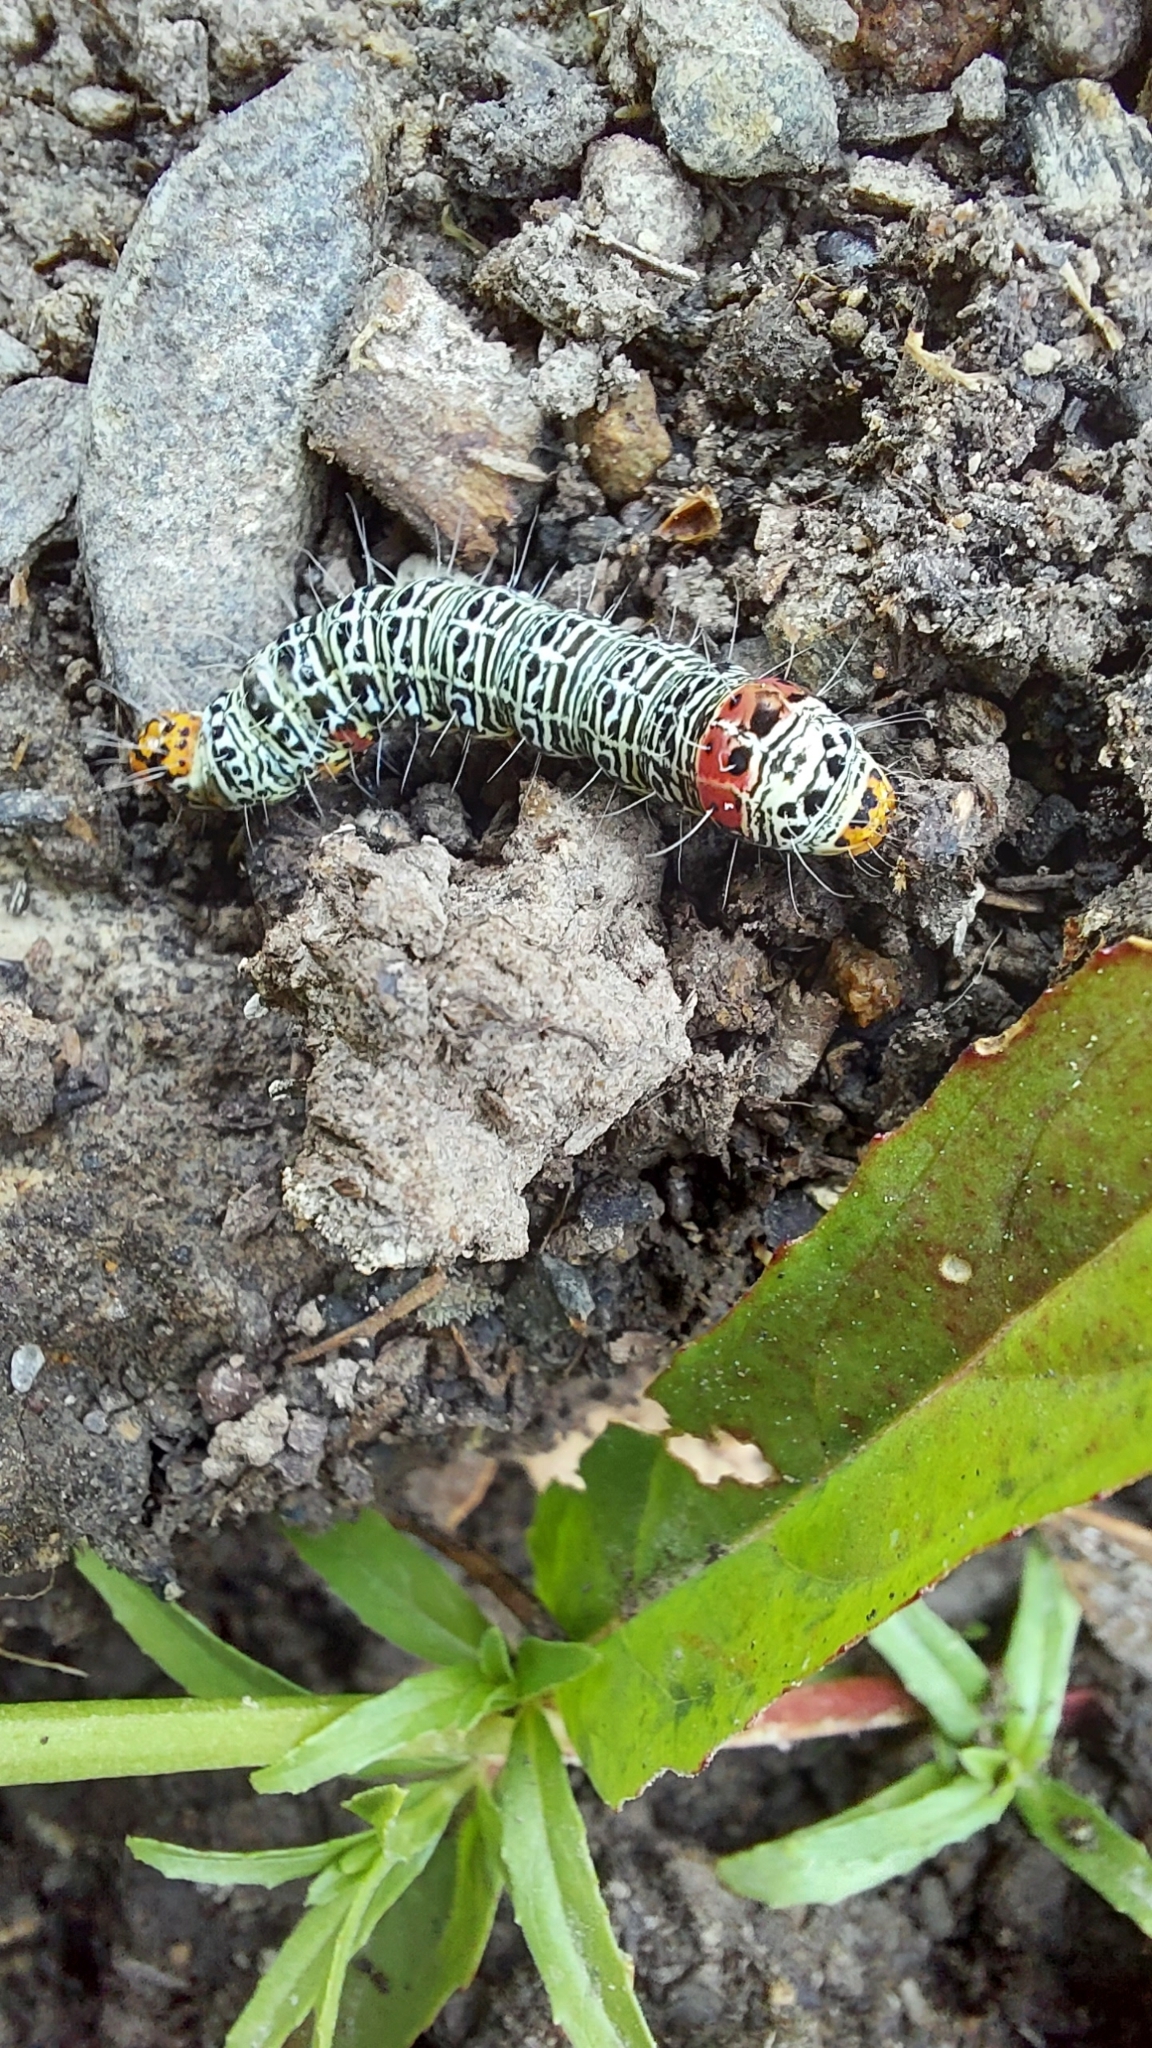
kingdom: Animalia
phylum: Arthropoda
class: Insecta
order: Lepidoptera
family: Noctuidae
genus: Phalaenoides
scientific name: Phalaenoides glycinae
